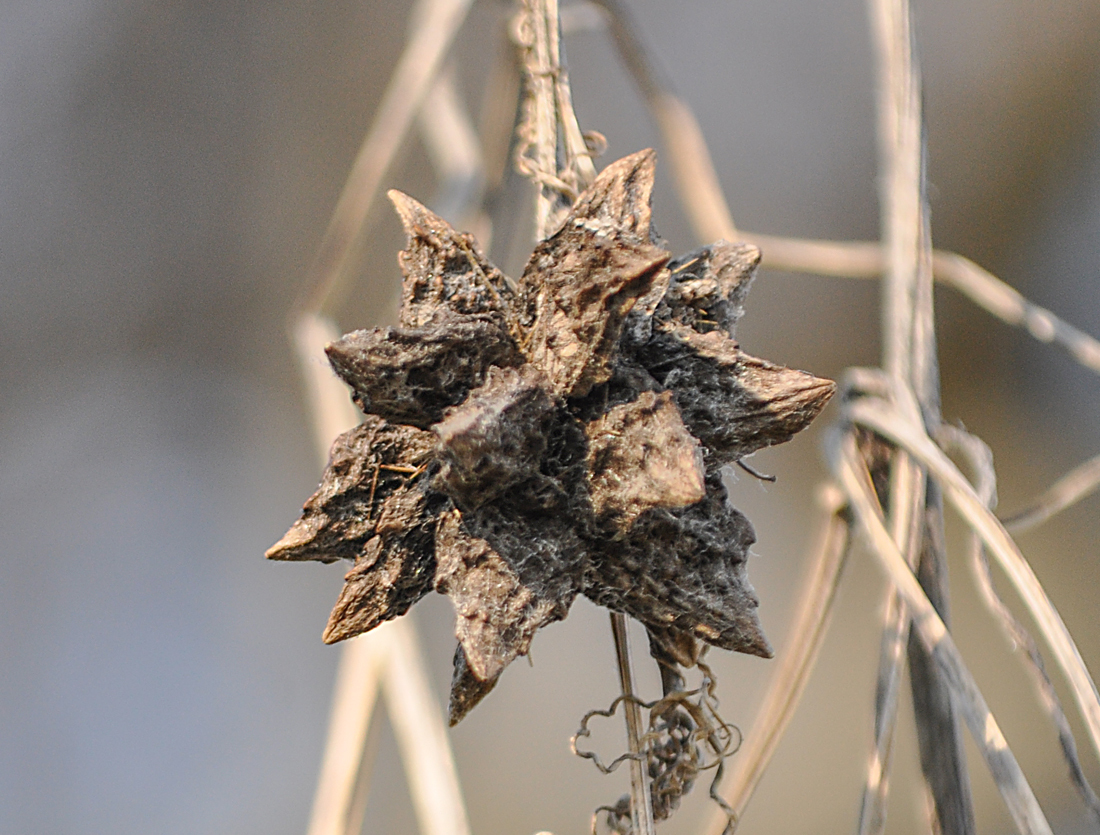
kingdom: Plantae
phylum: Tracheophyta
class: Magnoliopsida
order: Cucurbitales
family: Cucurbitaceae
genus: Sicyos
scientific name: Sicyos angulatus
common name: Angled burr cucumber
